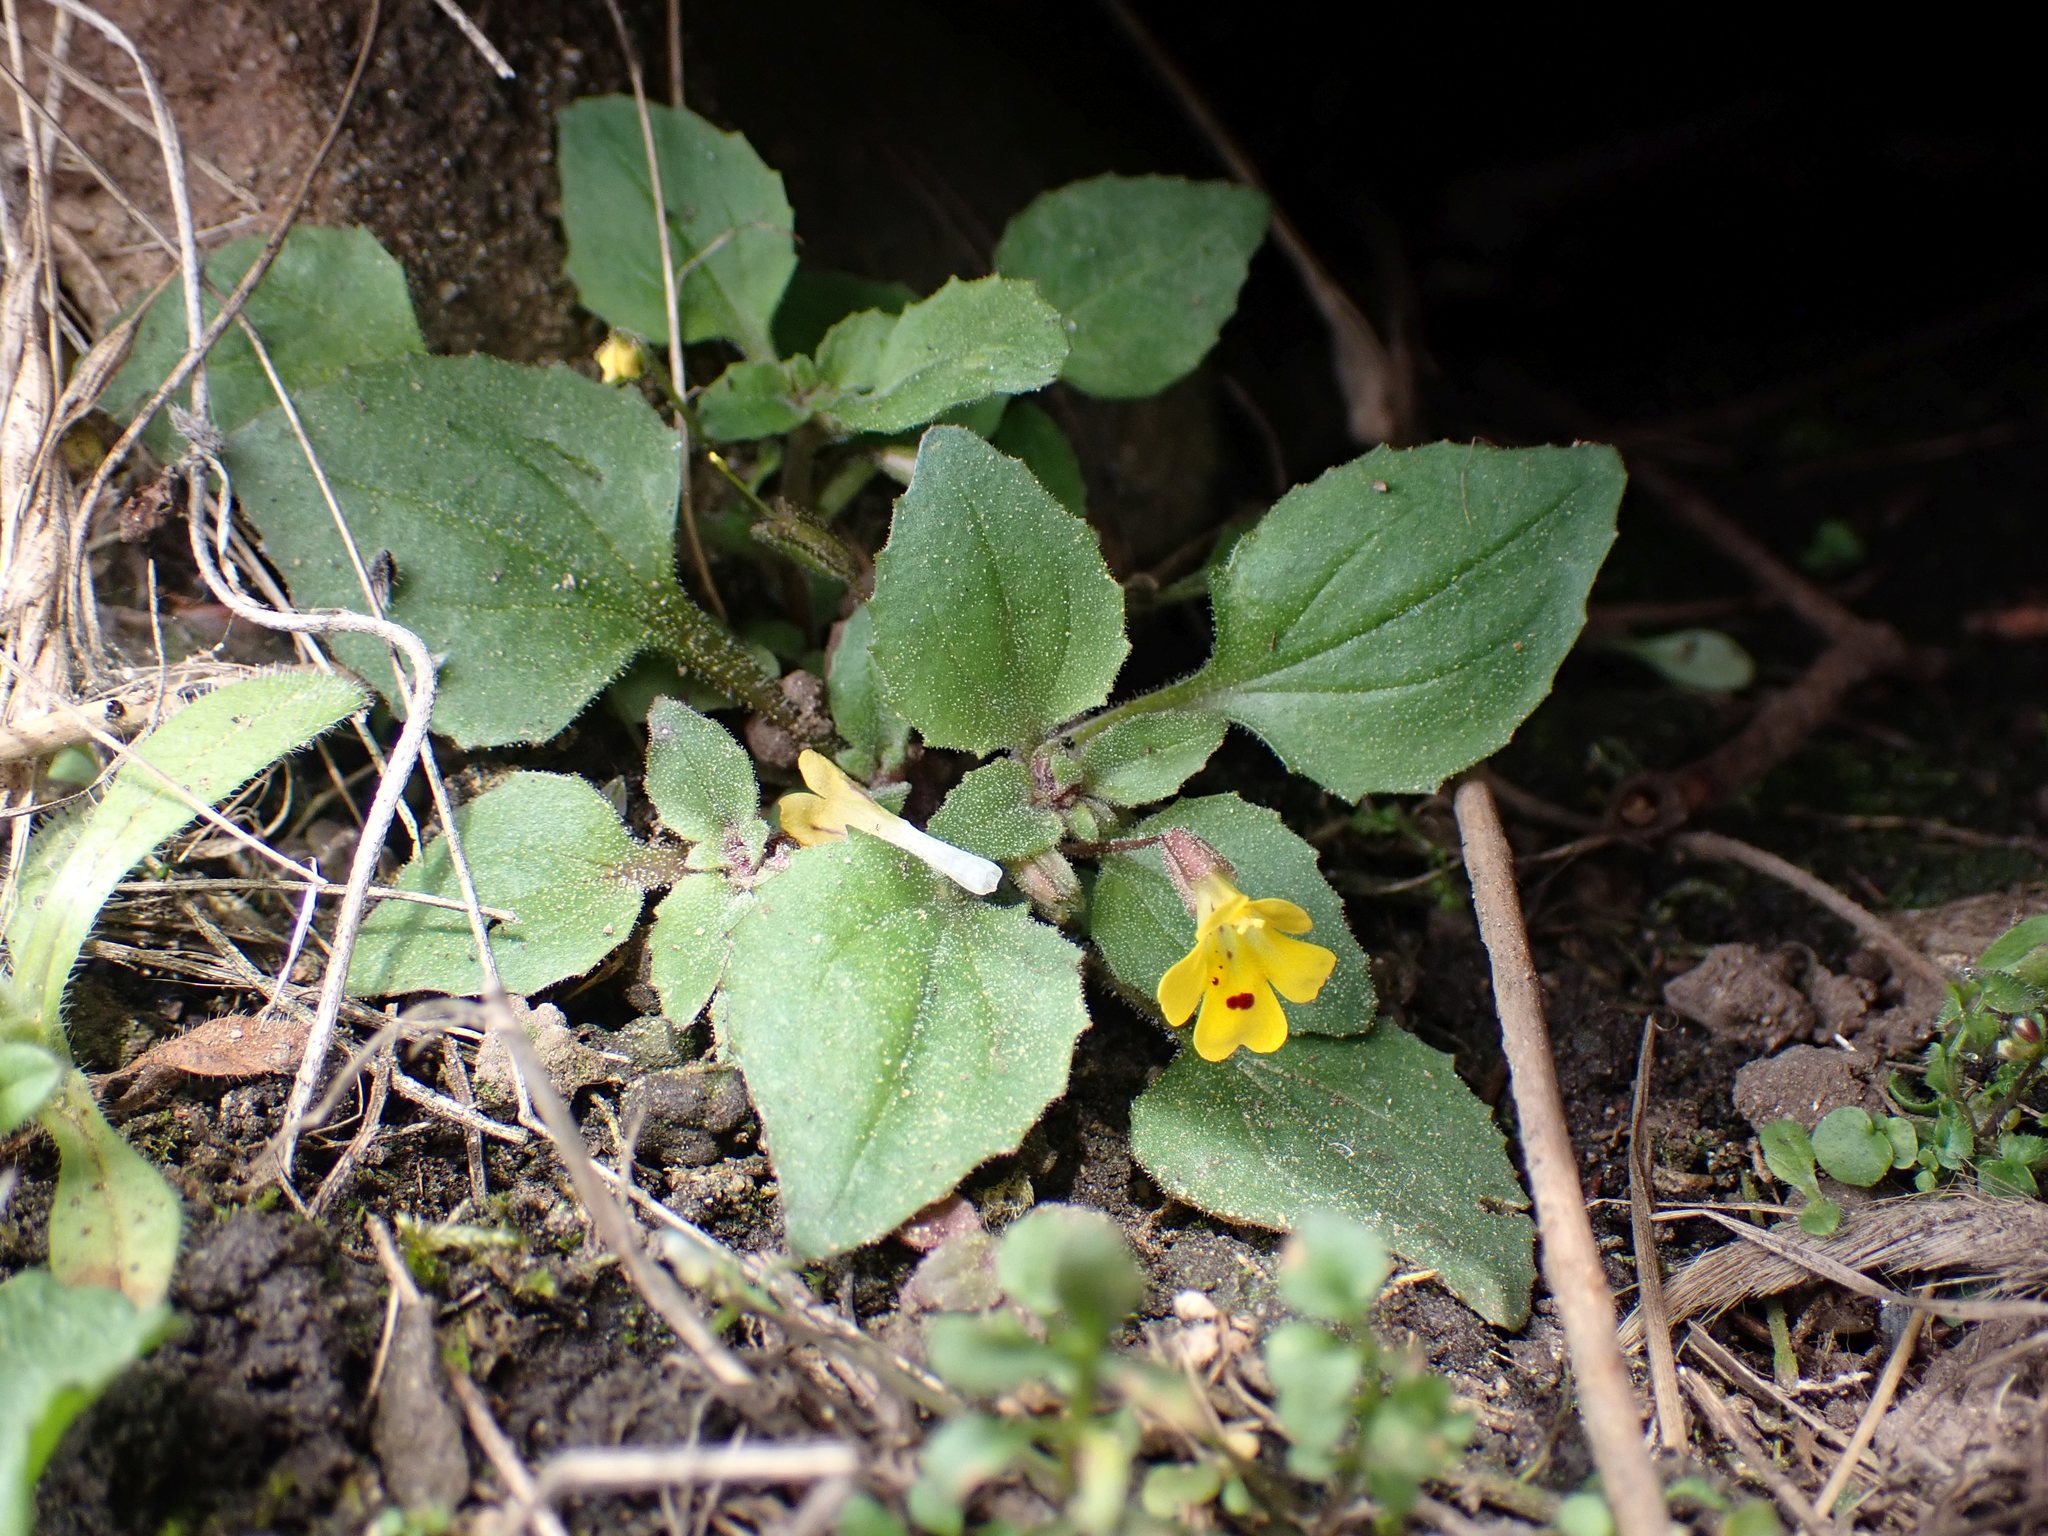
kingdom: Plantae
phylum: Tracheophyta
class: Magnoliopsida
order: Lamiales
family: Phrymaceae
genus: Erythranthe
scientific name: Erythranthe alsinoides
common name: Chickweed monkeyflower
